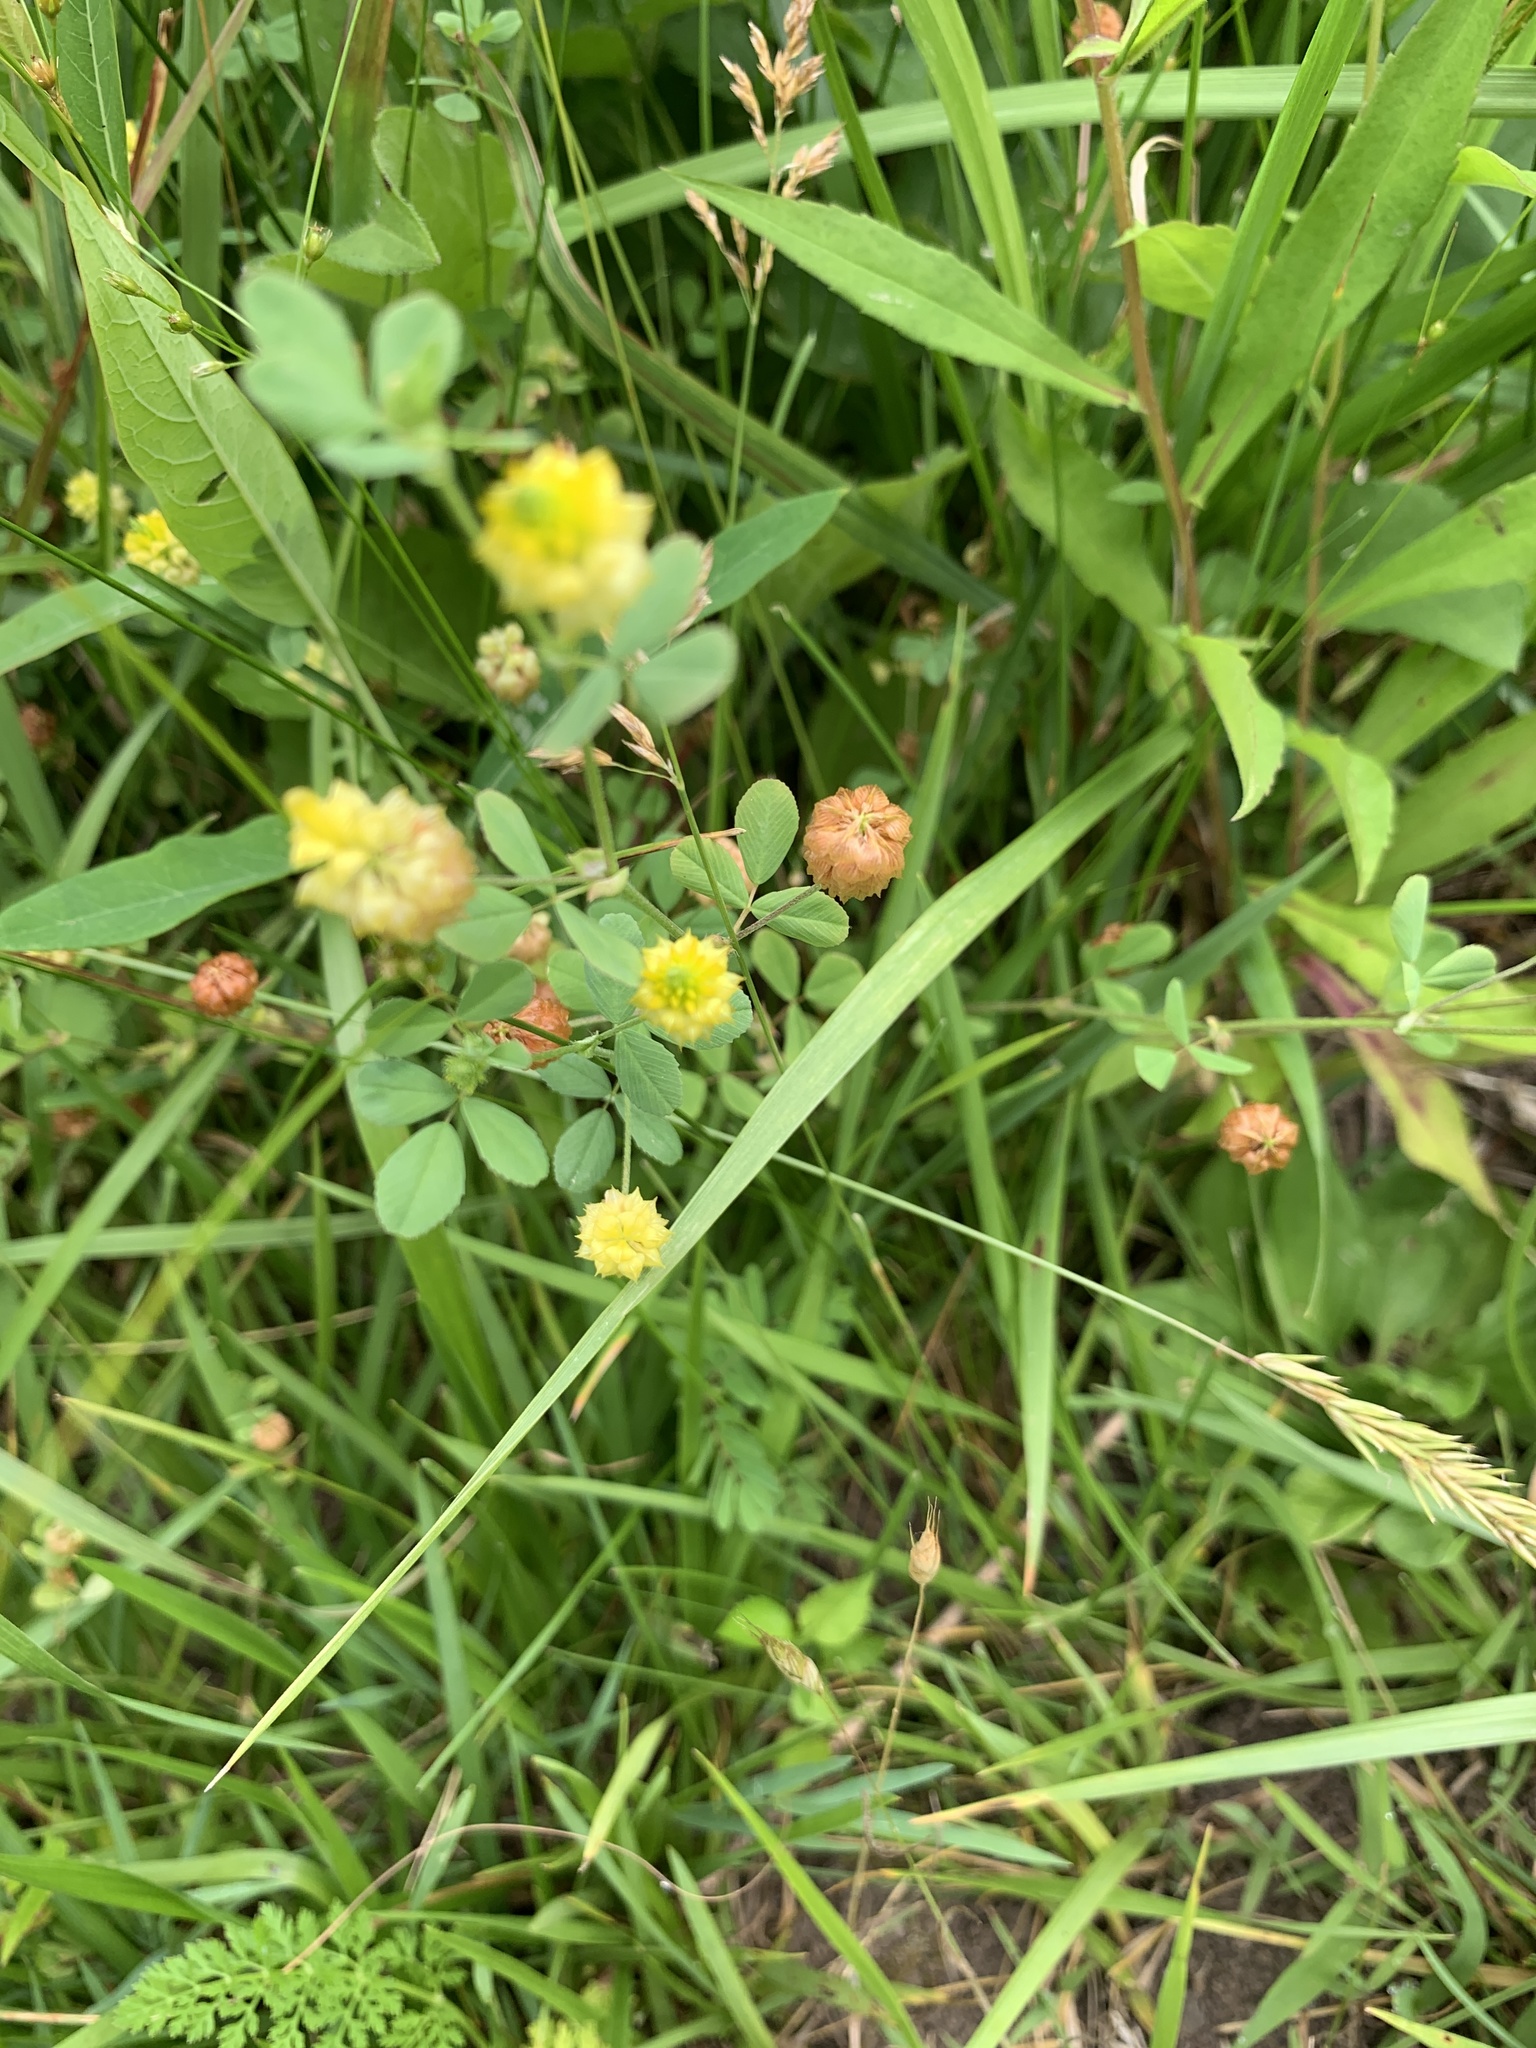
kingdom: Plantae
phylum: Tracheophyta
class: Magnoliopsida
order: Fabales
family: Fabaceae
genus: Trifolium
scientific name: Trifolium campestre
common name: Field clover
